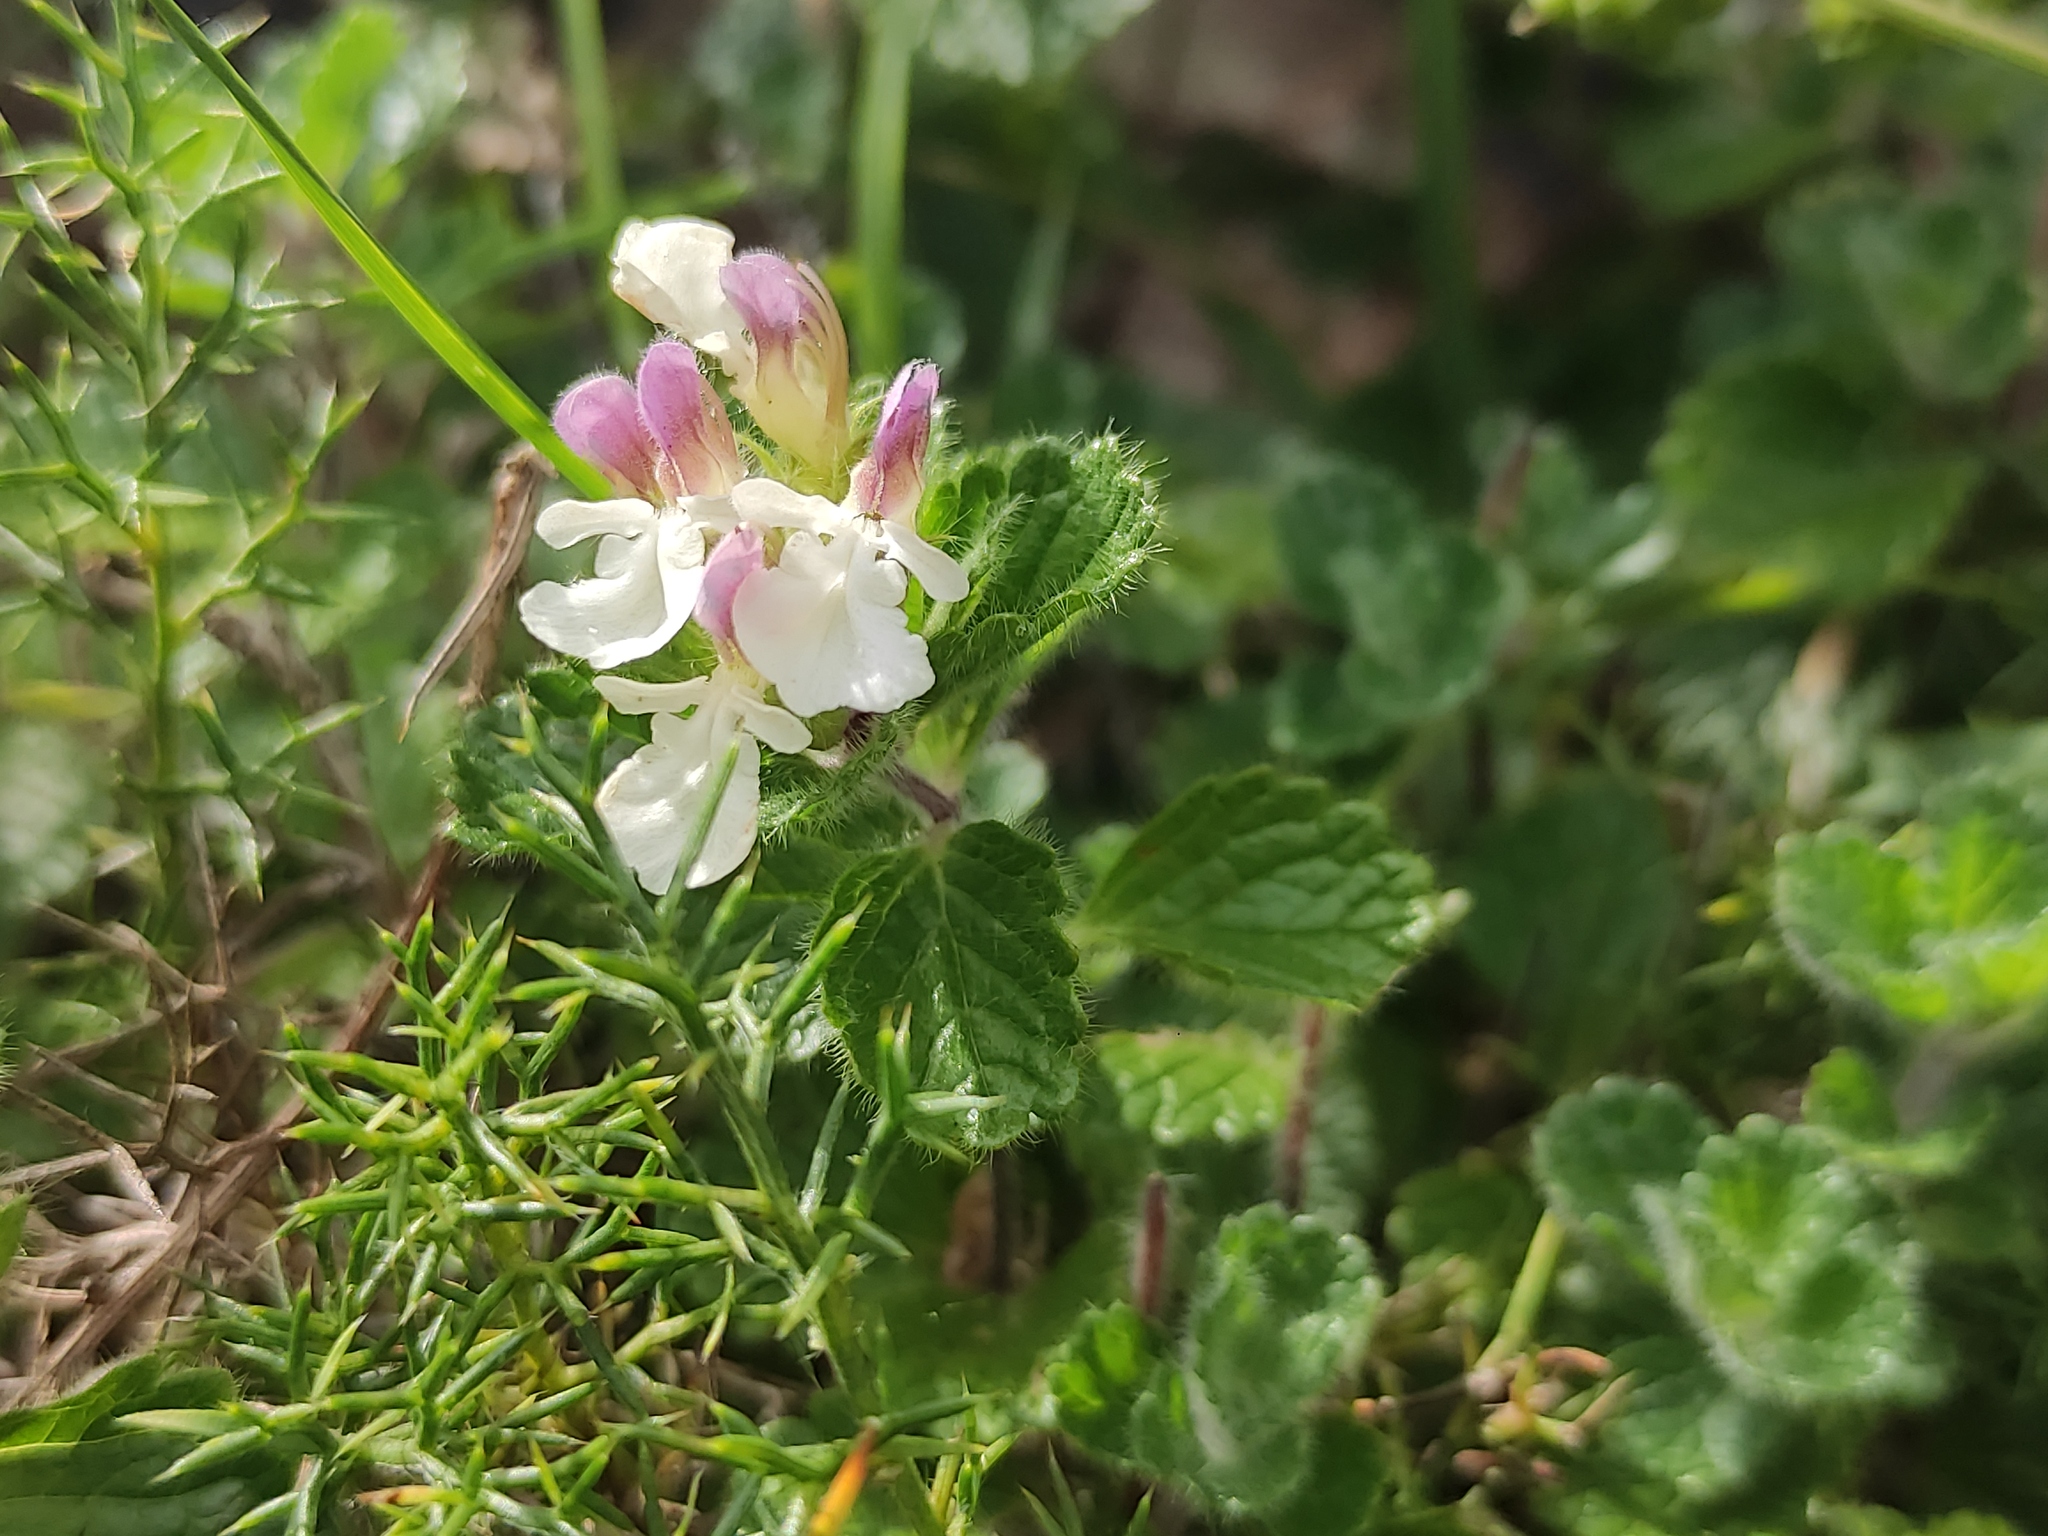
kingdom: Plantae
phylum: Tracheophyta
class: Magnoliopsida
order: Lamiales
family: Lamiaceae
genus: Teucrium
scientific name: Teucrium pyrenaicum
